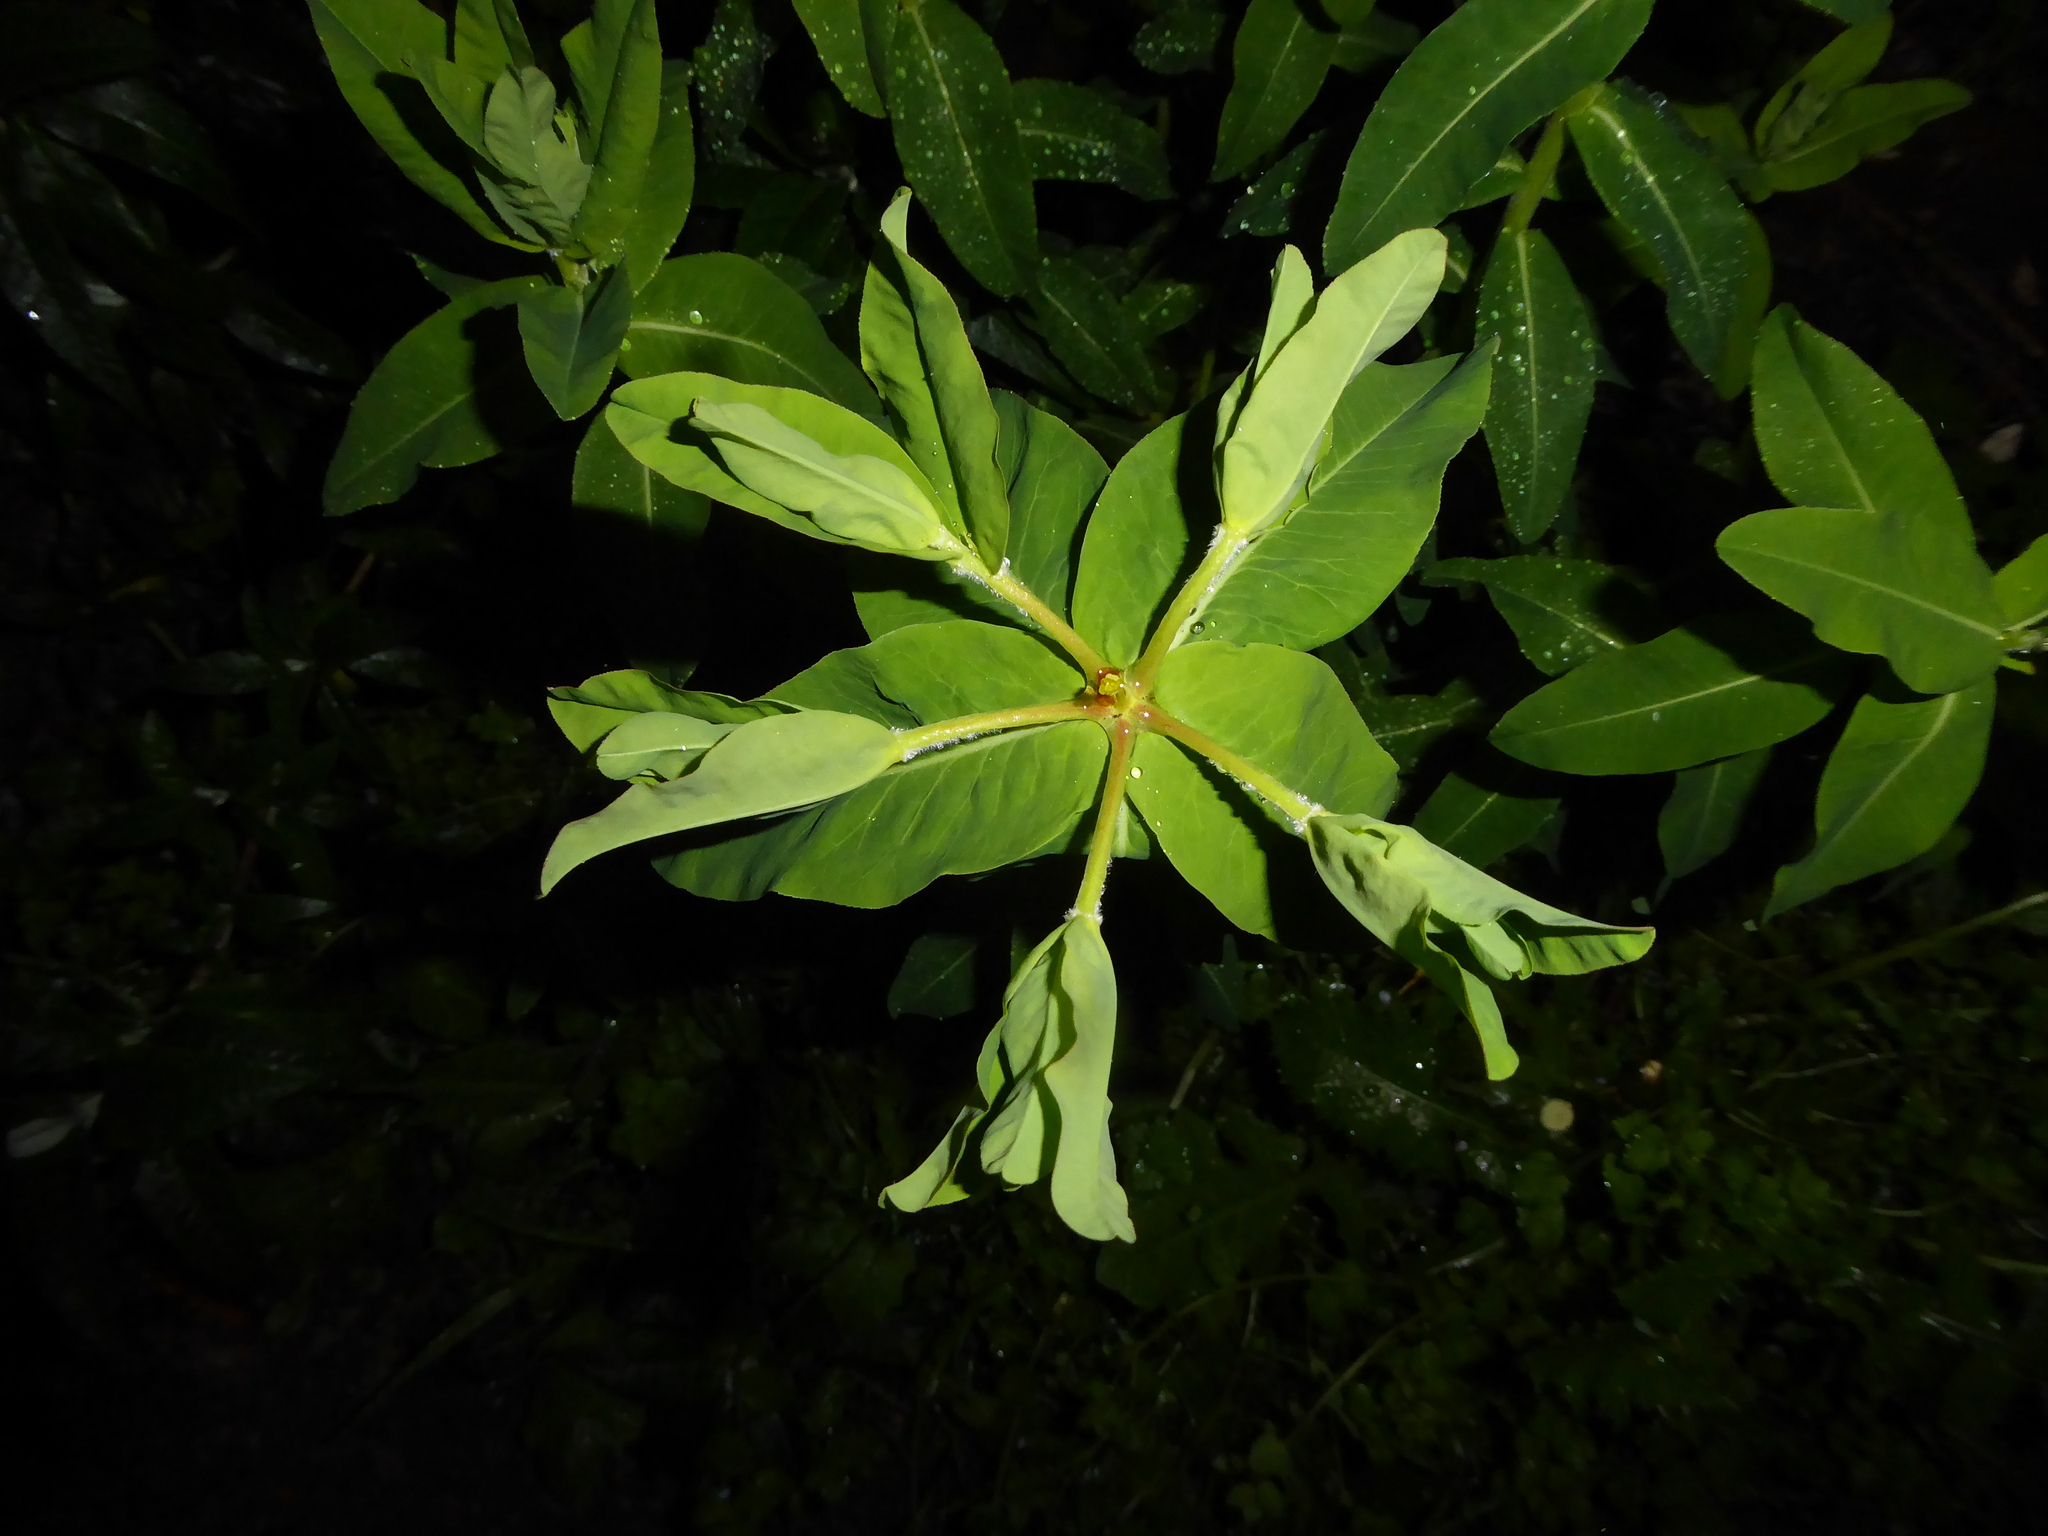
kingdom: Plantae
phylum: Tracheophyta
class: Magnoliopsida
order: Malpighiales
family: Euphorbiaceae
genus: Euphorbia
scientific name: Euphorbia hyberna
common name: Irish spurge
